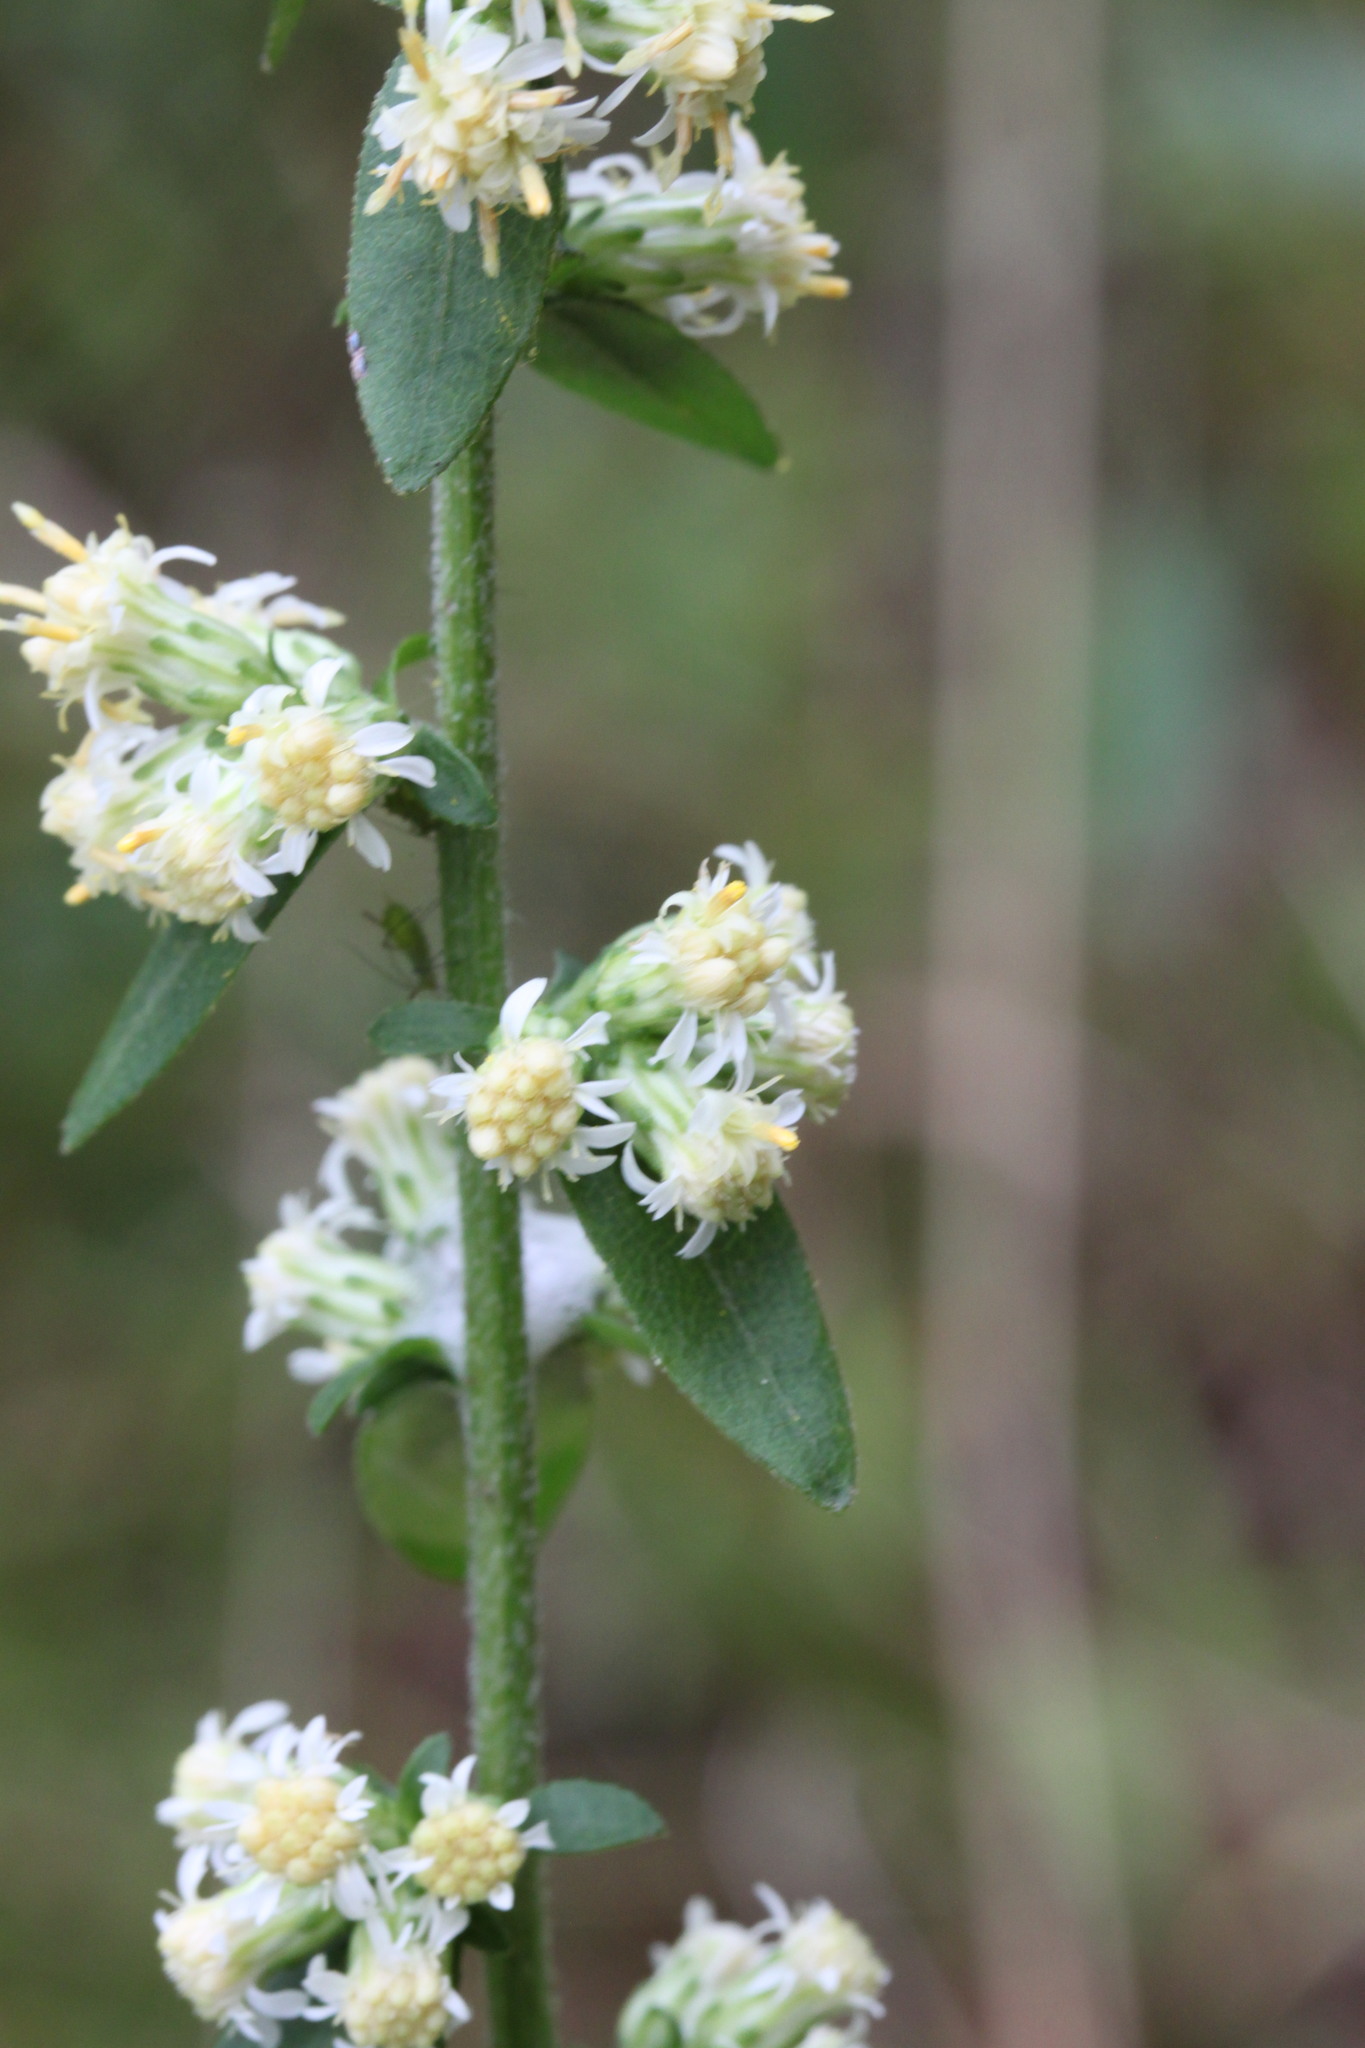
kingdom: Plantae
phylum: Tracheophyta
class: Magnoliopsida
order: Asterales
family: Asteraceae
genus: Solidago
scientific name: Solidago bicolor
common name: Silverrod
